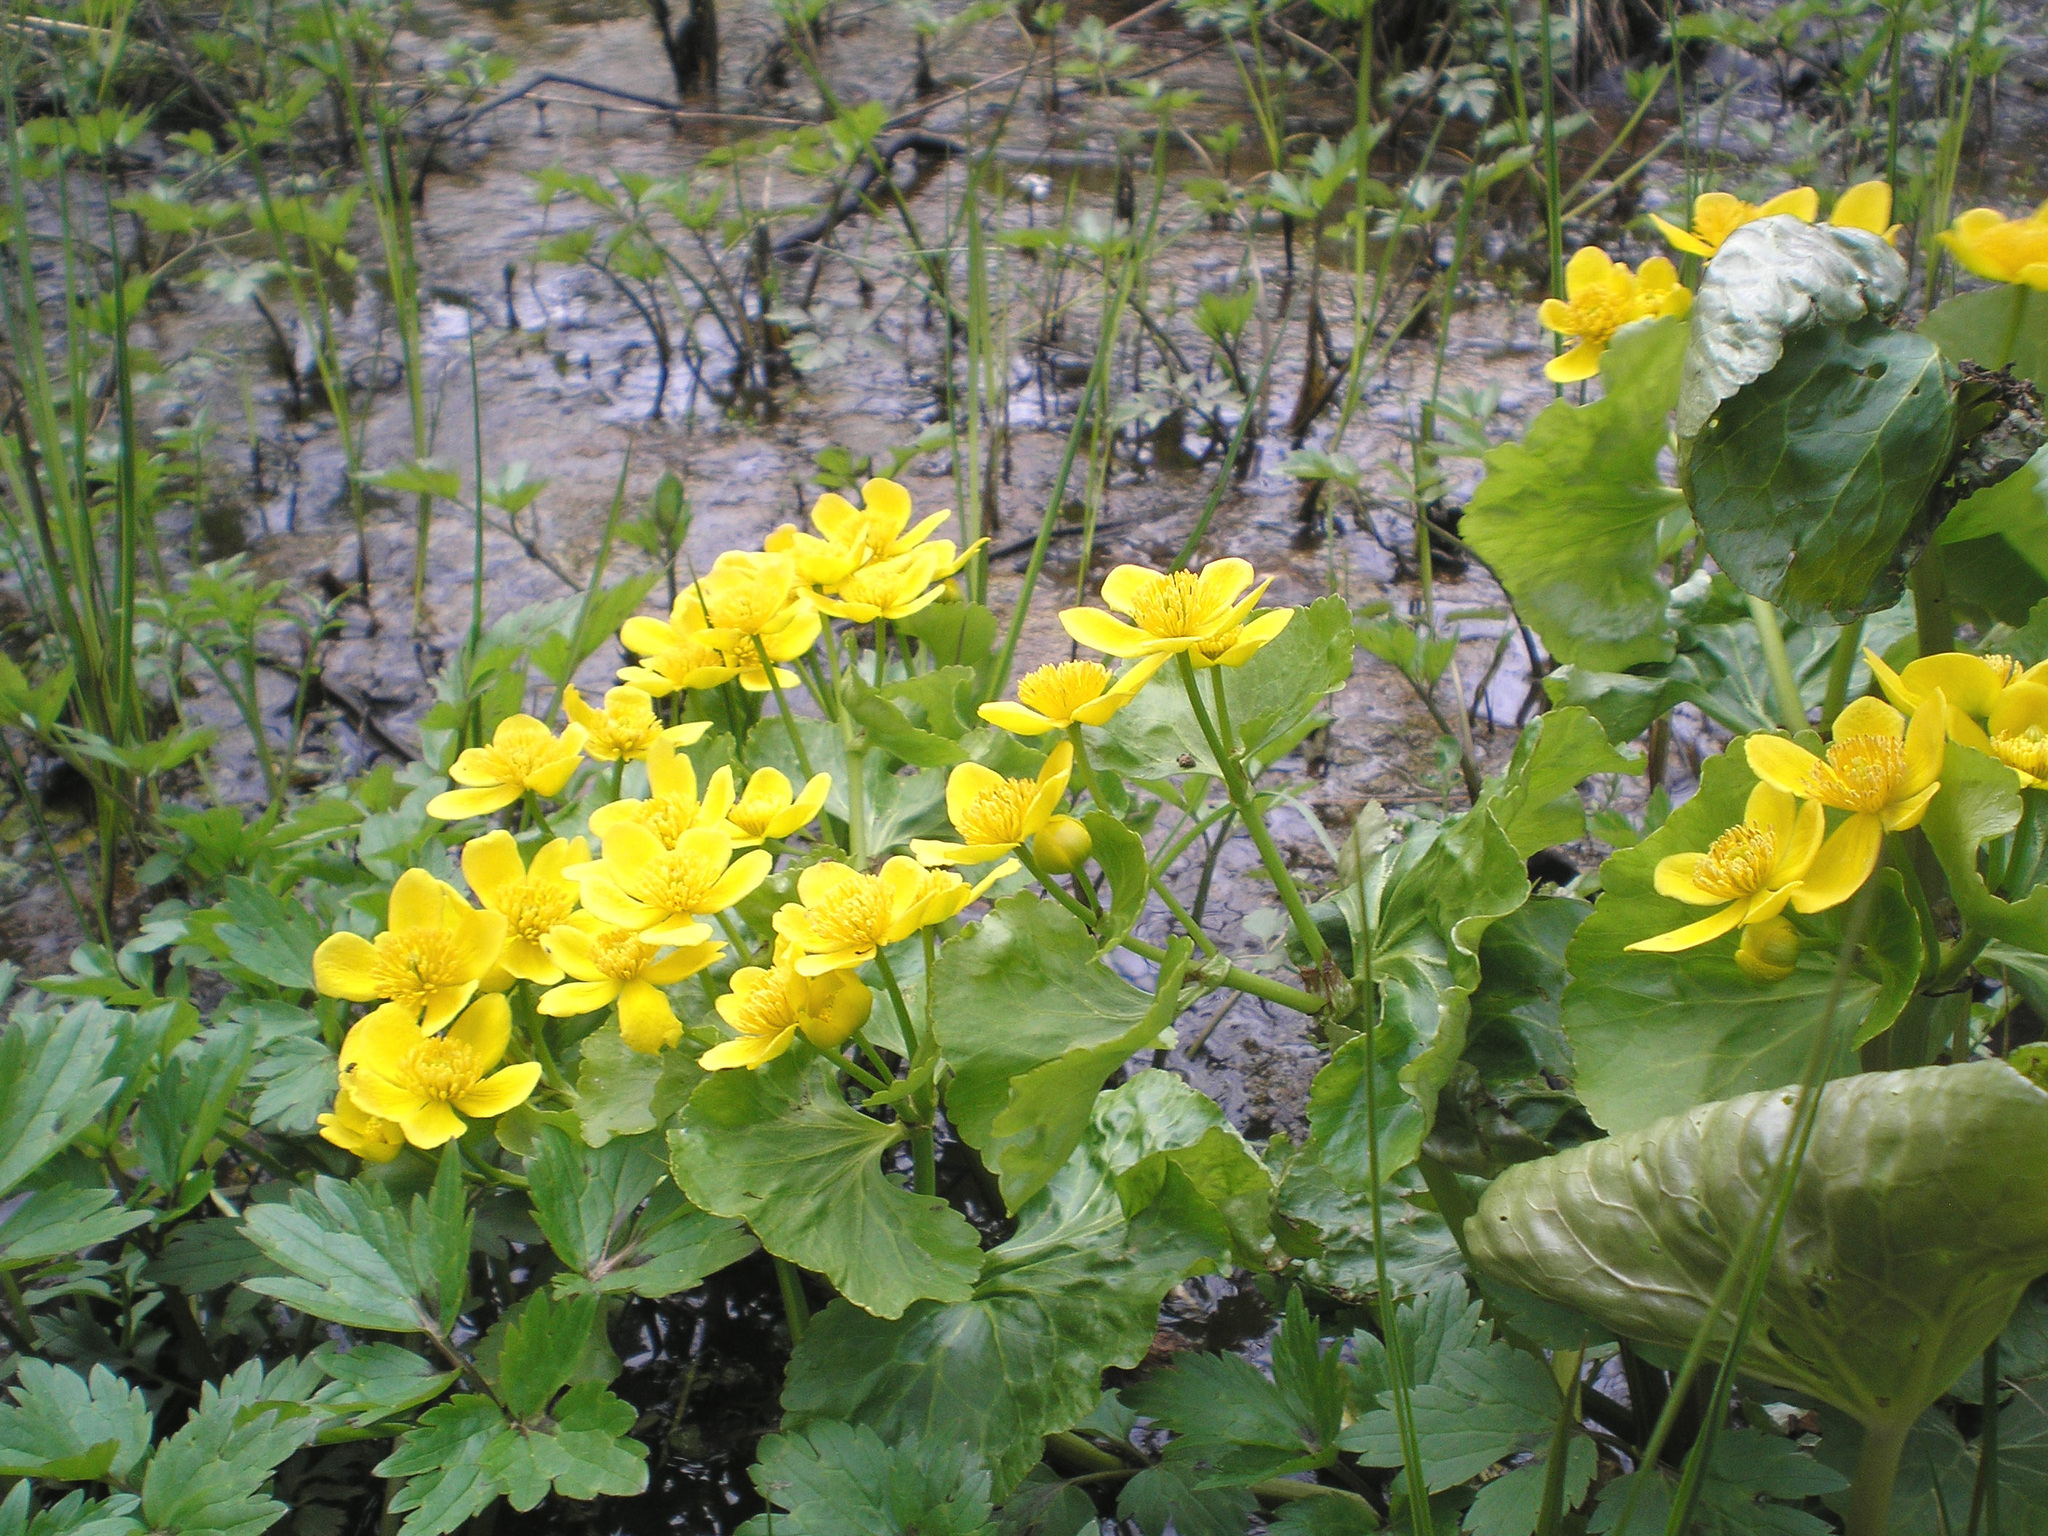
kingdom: Plantae
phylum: Tracheophyta
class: Magnoliopsida
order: Ranunculales
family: Ranunculaceae
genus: Caltha
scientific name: Caltha palustris
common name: Marsh marigold
